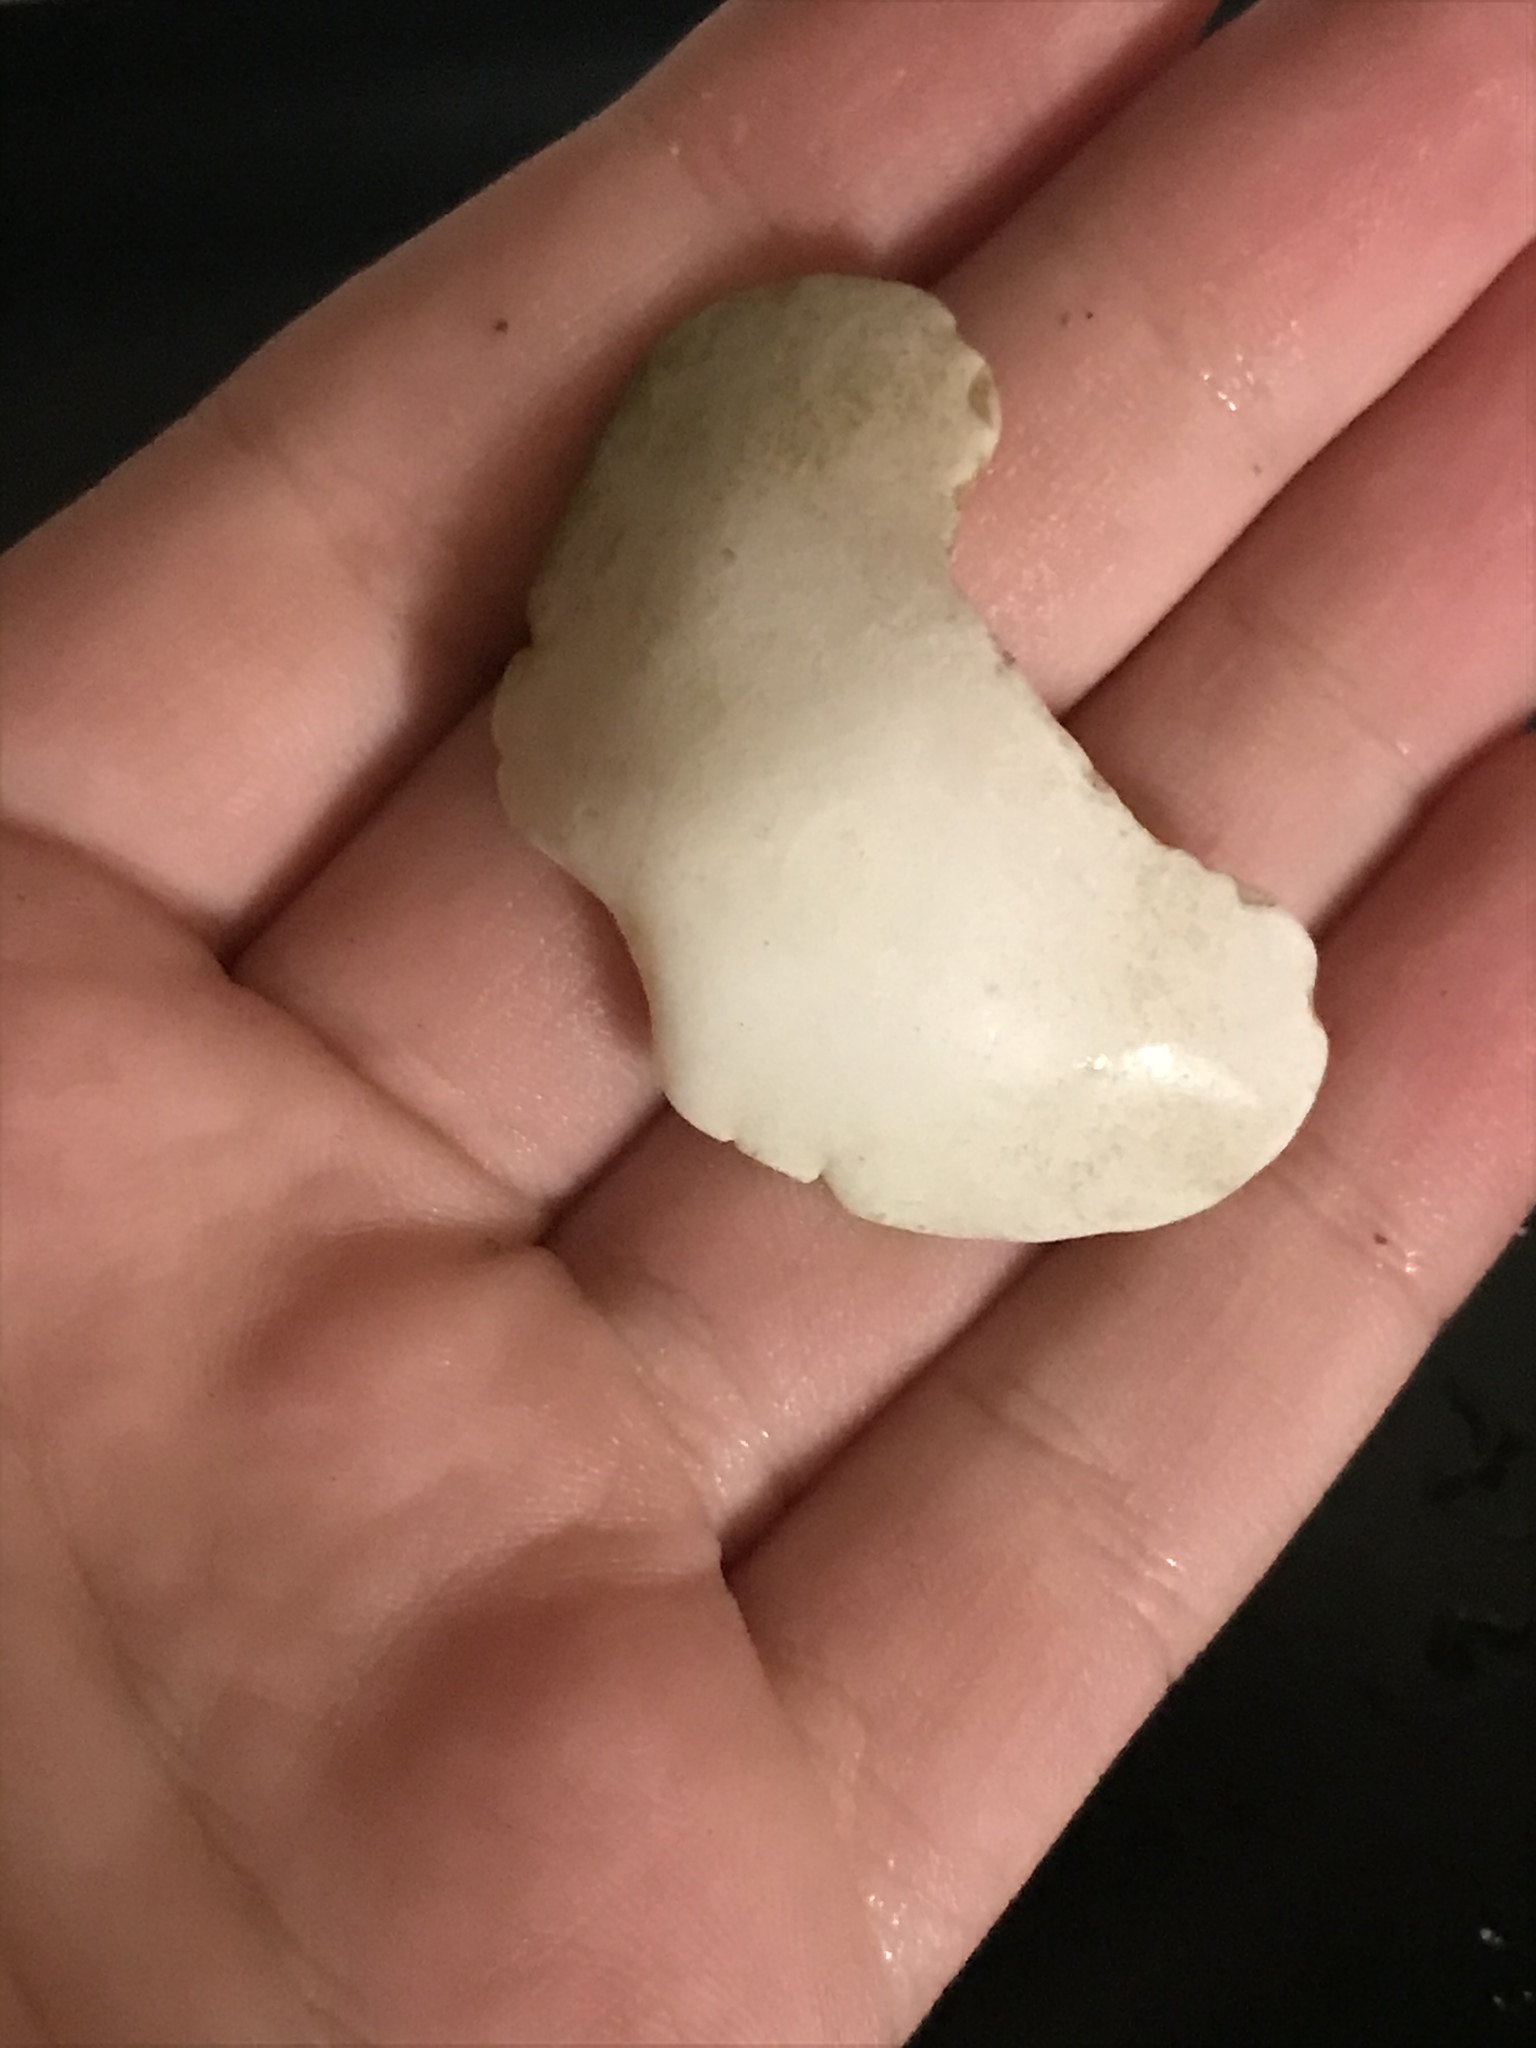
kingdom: Animalia
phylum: Mollusca
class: Polyplacophora
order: Chitonida
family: Acanthochitonidae
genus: Cryptochiton
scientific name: Cryptochiton stelleri
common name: Giant pacific chiton
